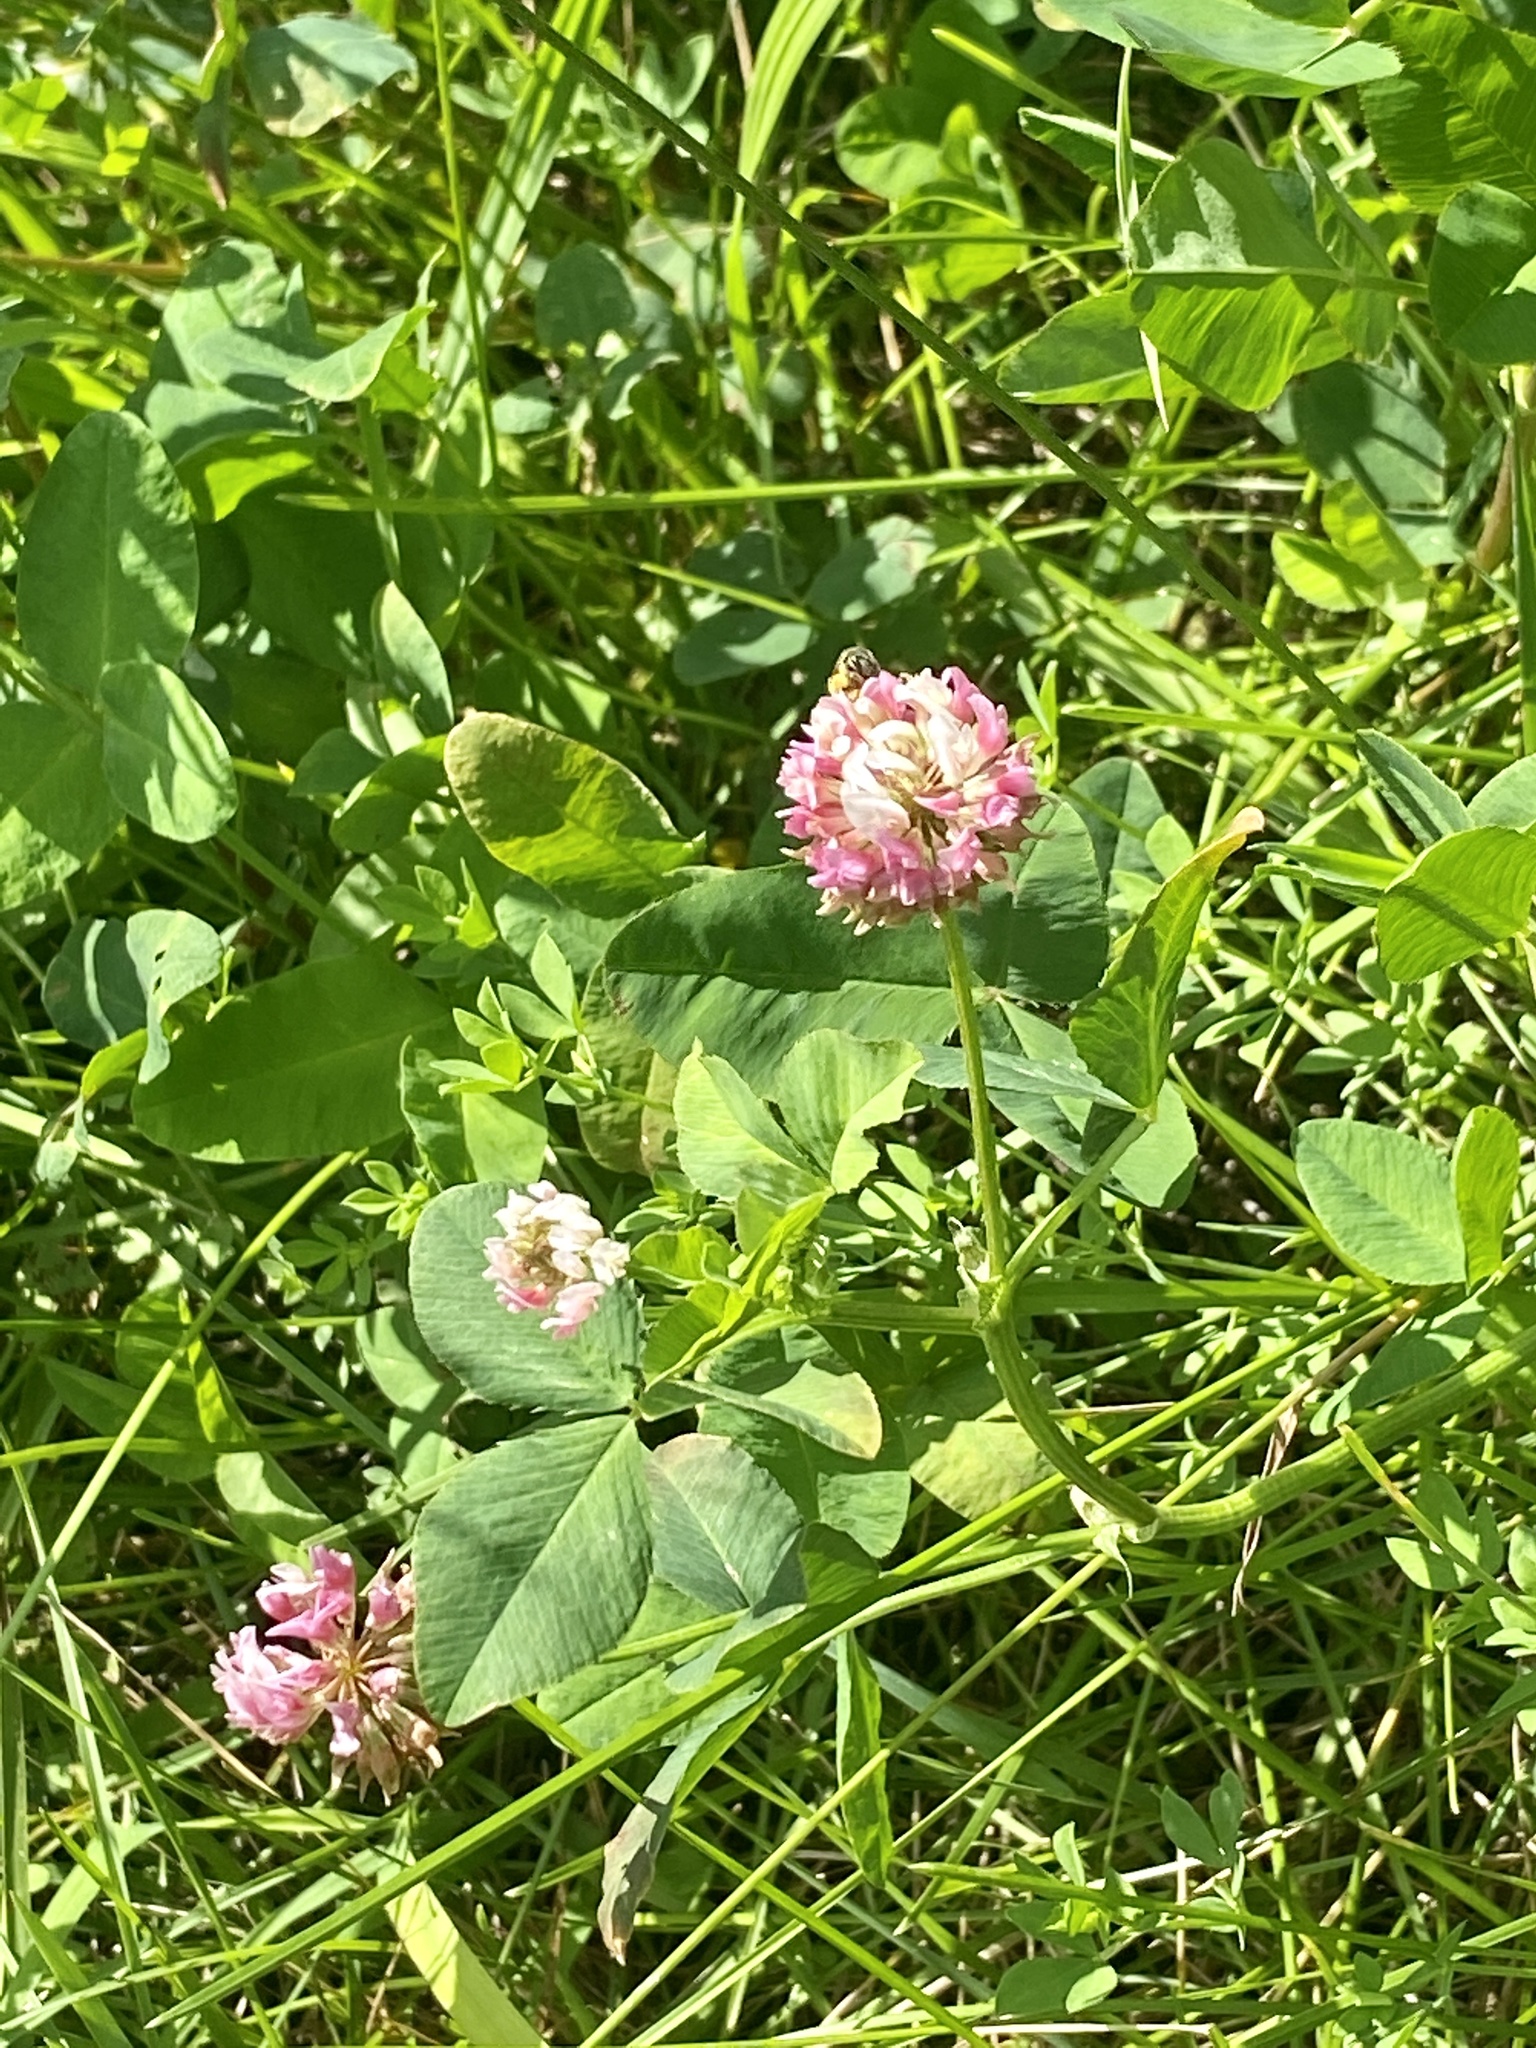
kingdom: Plantae
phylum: Tracheophyta
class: Magnoliopsida
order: Fabales
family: Fabaceae
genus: Trifolium
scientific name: Trifolium hybridum
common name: Alsike clover
